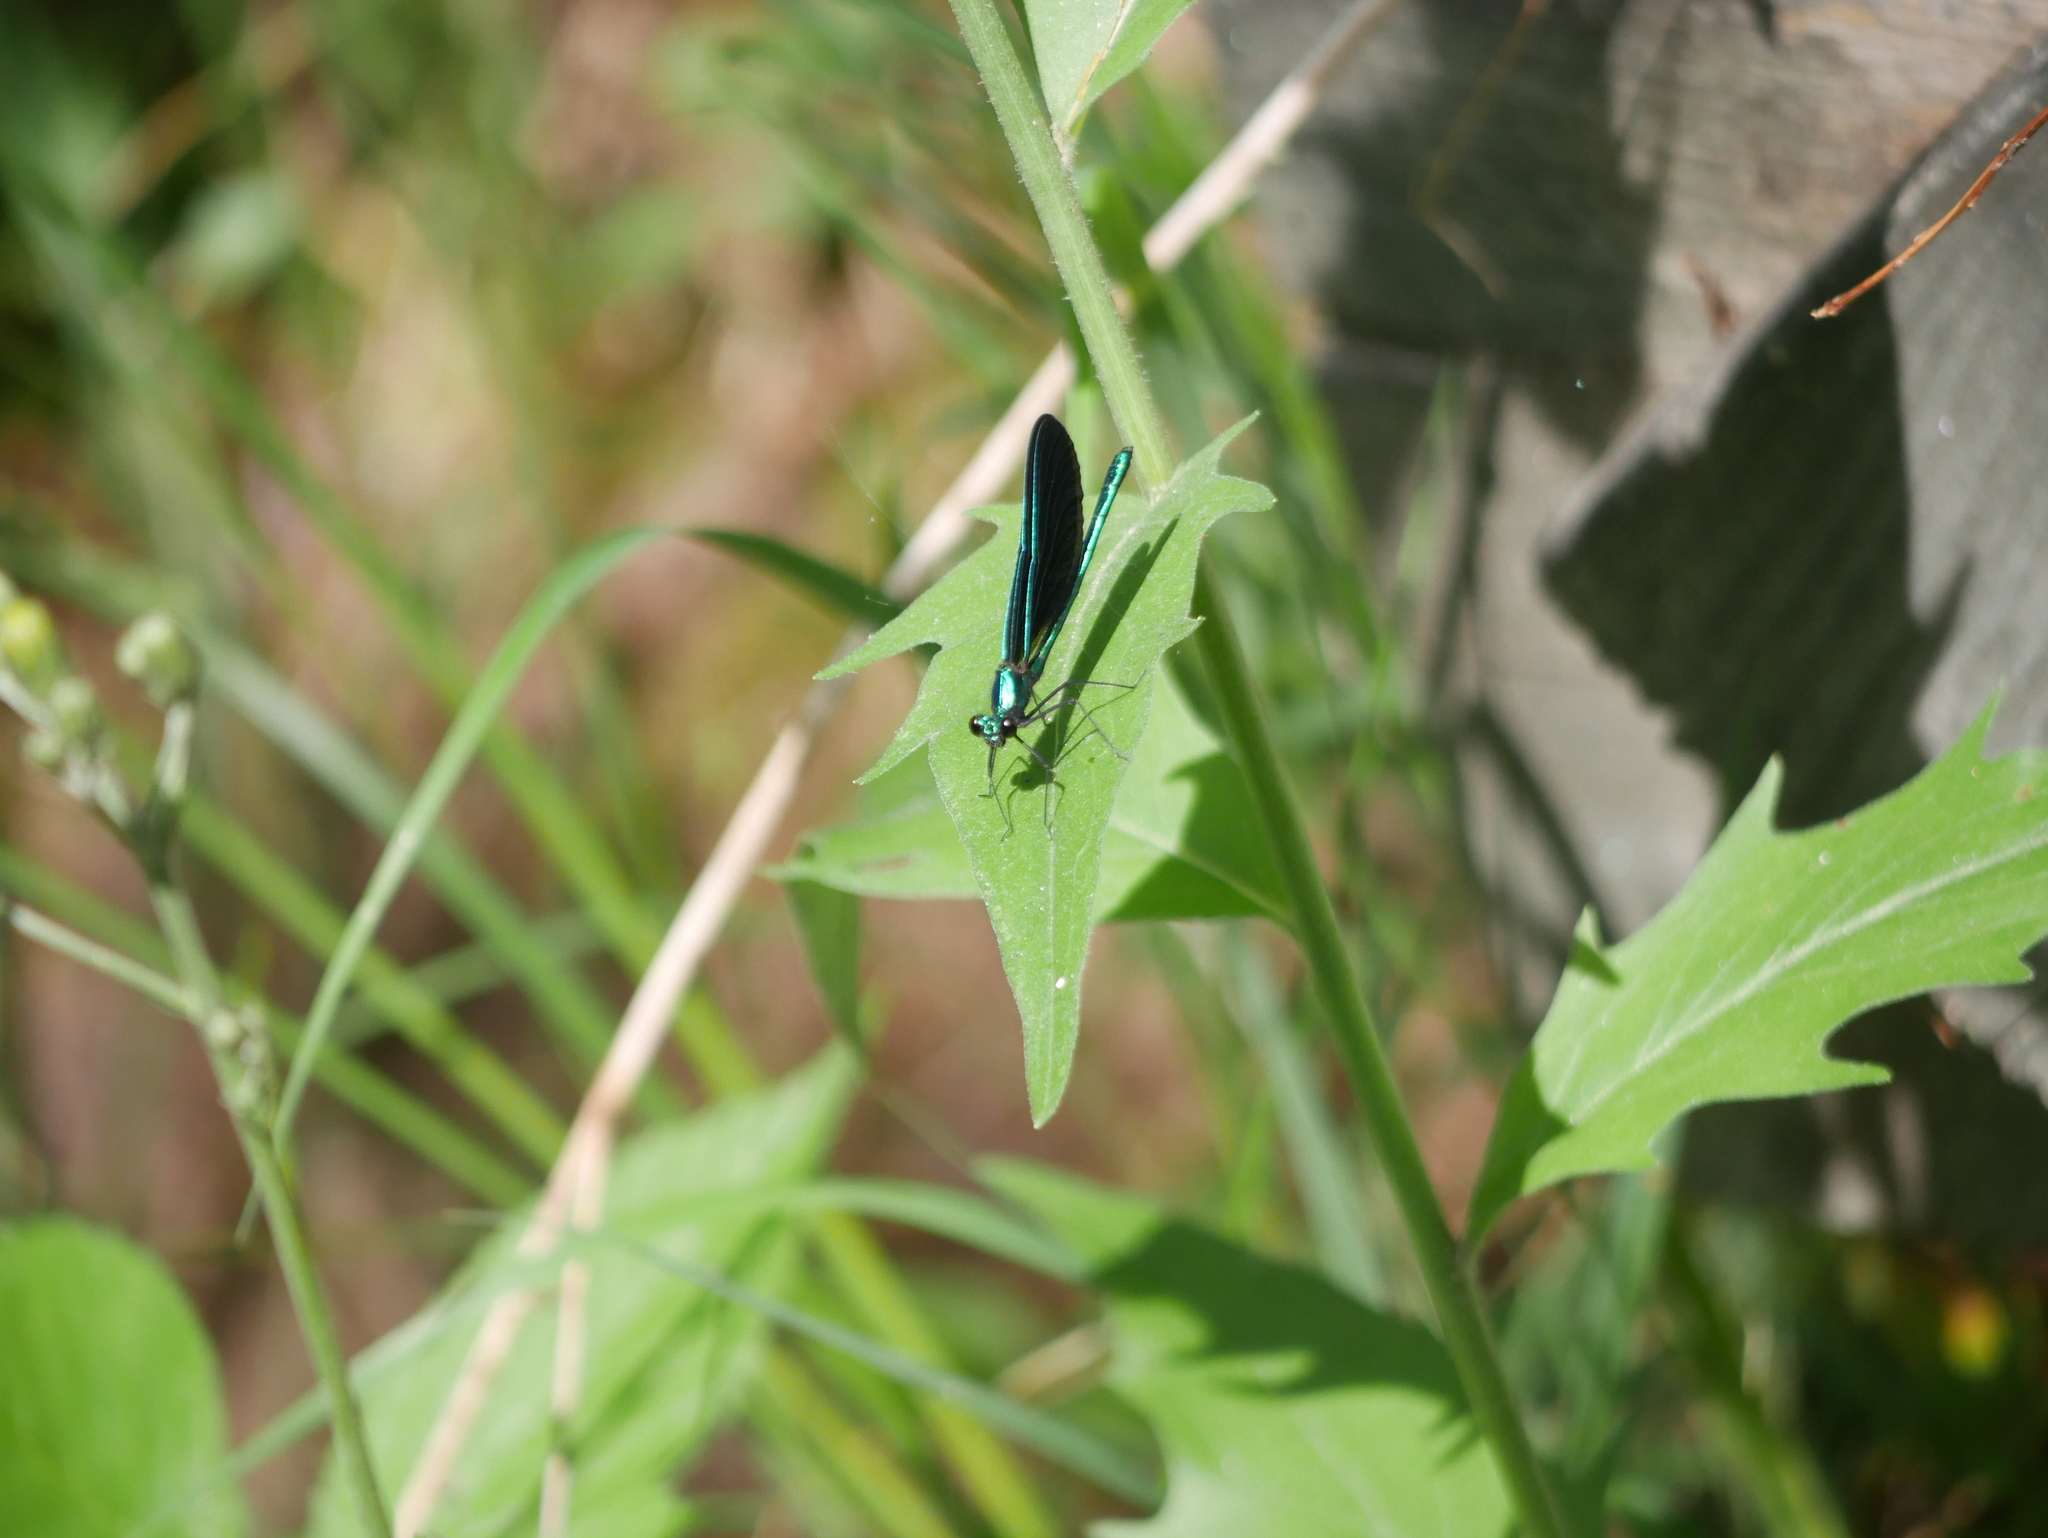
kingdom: Animalia
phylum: Arthropoda
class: Insecta
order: Odonata
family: Calopterygidae
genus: Calopteryx
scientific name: Calopteryx maculata
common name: Ebony jewelwing
